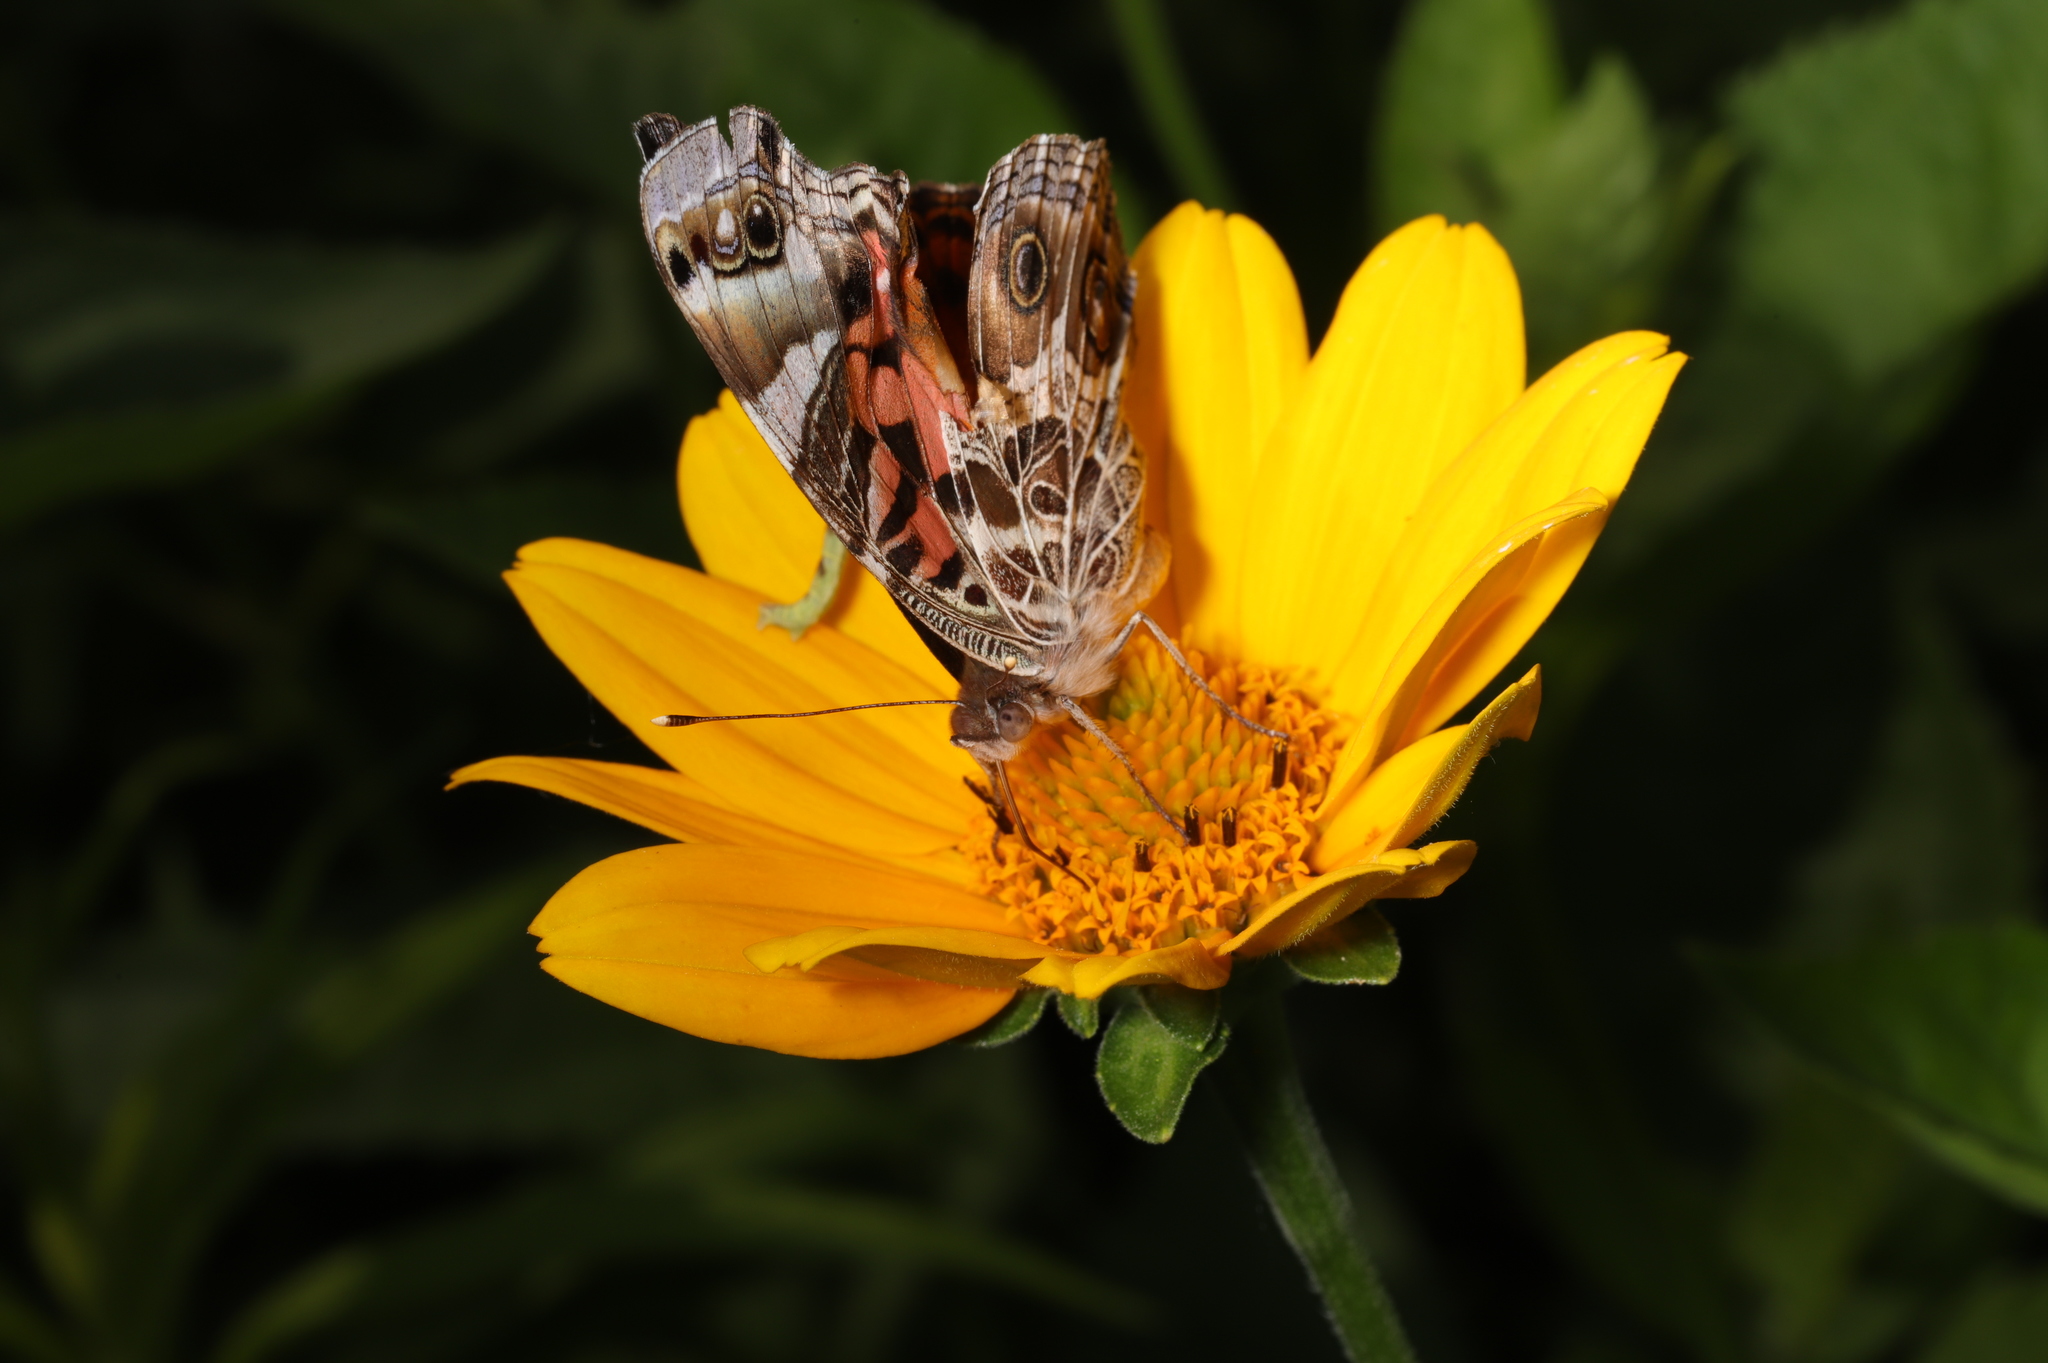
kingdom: Animalia
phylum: Arthropoda
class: Insecta
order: Lepidoptera
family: Nymphalidae
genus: Vanessa
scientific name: Vanessa virginiensis
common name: American lady
